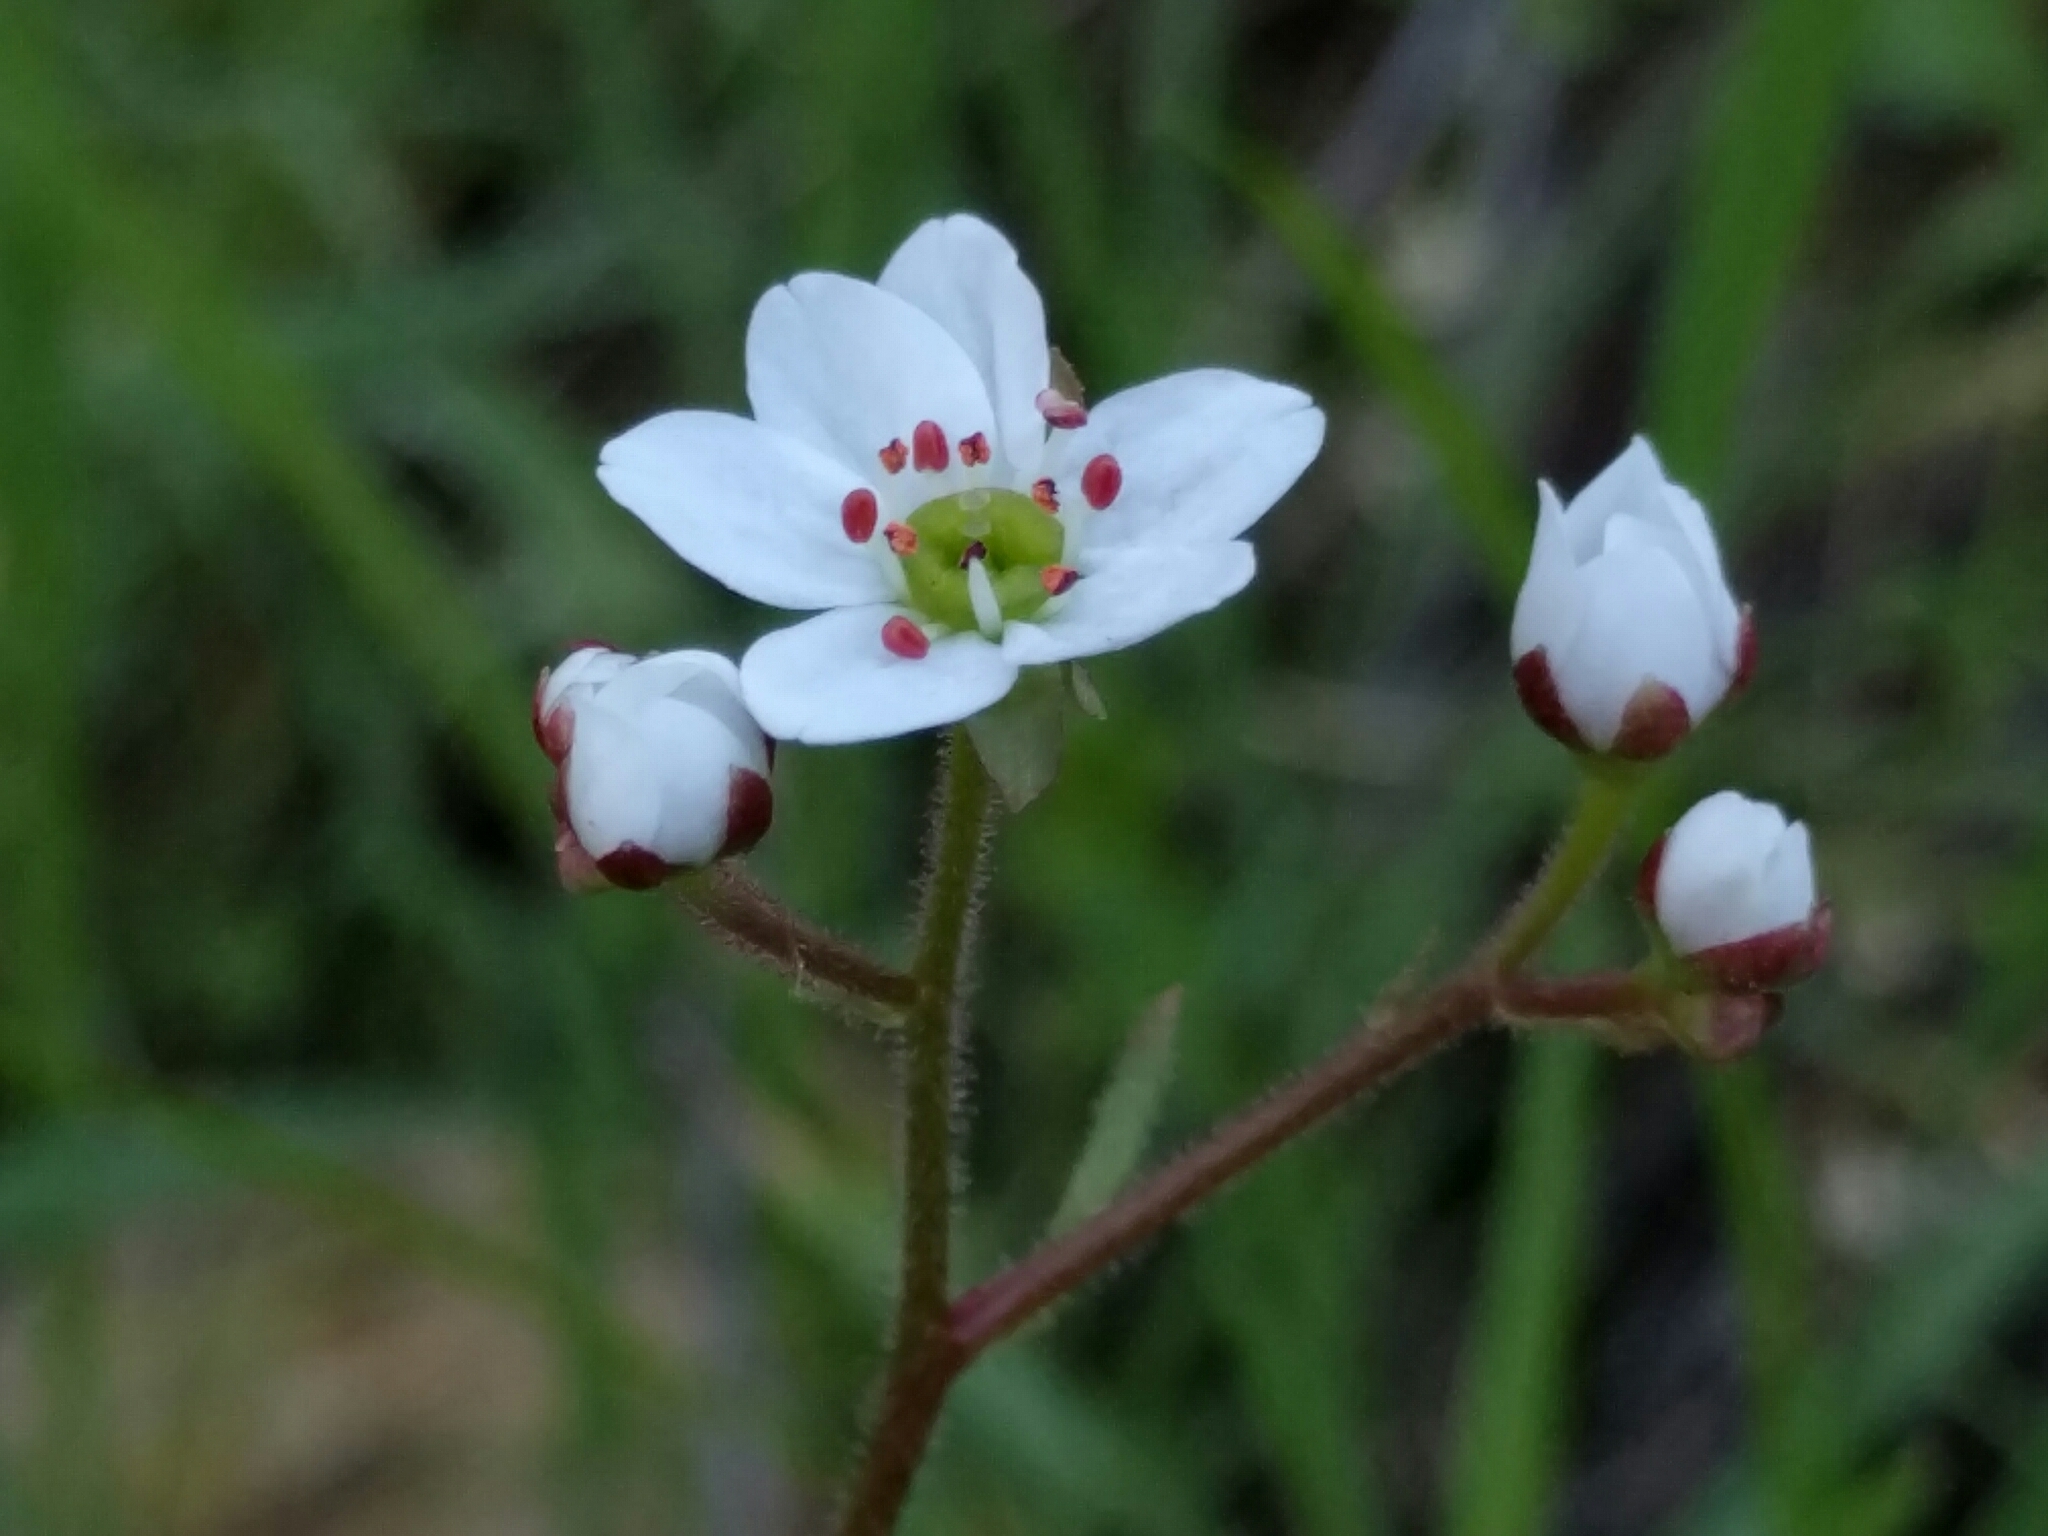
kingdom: Plantae
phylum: Tracheophyta
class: Magnoliopsida
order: Saxifragales
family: Saxifragaceae
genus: Micranthes
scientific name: Micranthes californica
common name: California saxifrage
